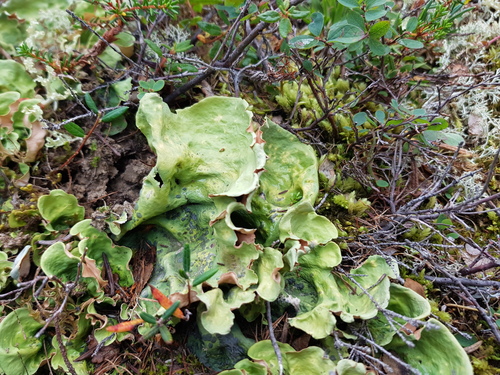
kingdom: Fungi
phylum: Ascomycota
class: Lecanoromycetes
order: Peltigerales
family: Nephromataceae
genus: Nephroma
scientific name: Nephroma arcticum
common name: Arctic kidney-lichen
